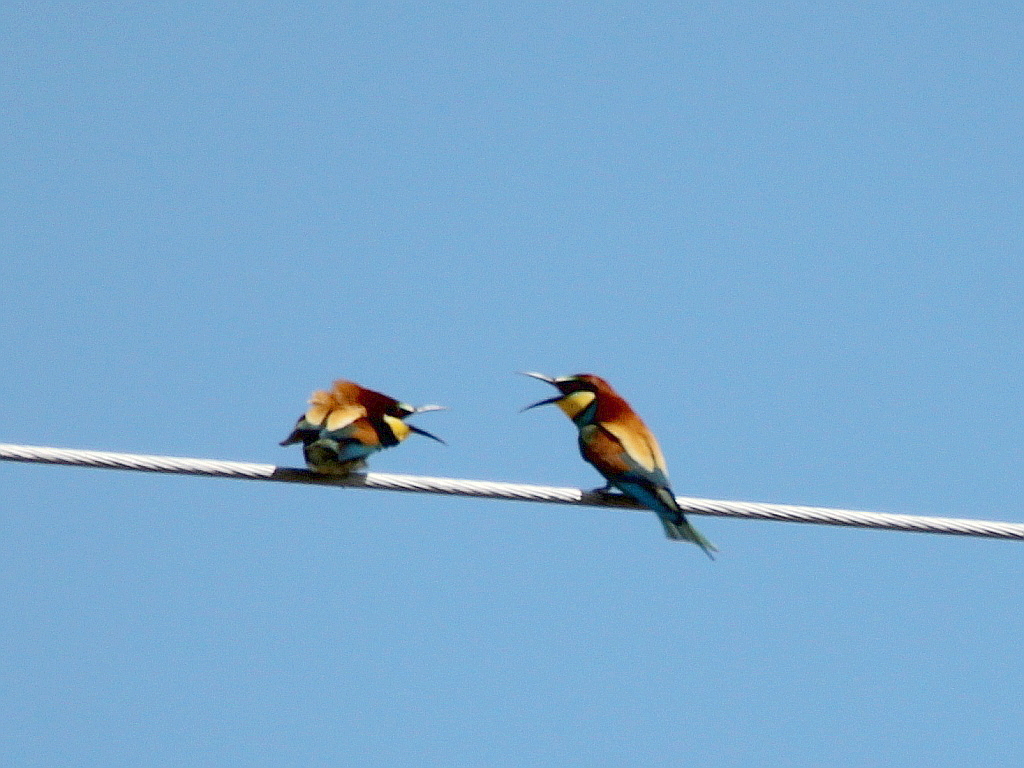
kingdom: Animalia
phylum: Chordata
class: Aves
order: Coraciiformes
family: Meropidae
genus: Merops
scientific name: Merops apiaster
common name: European bee-eater
